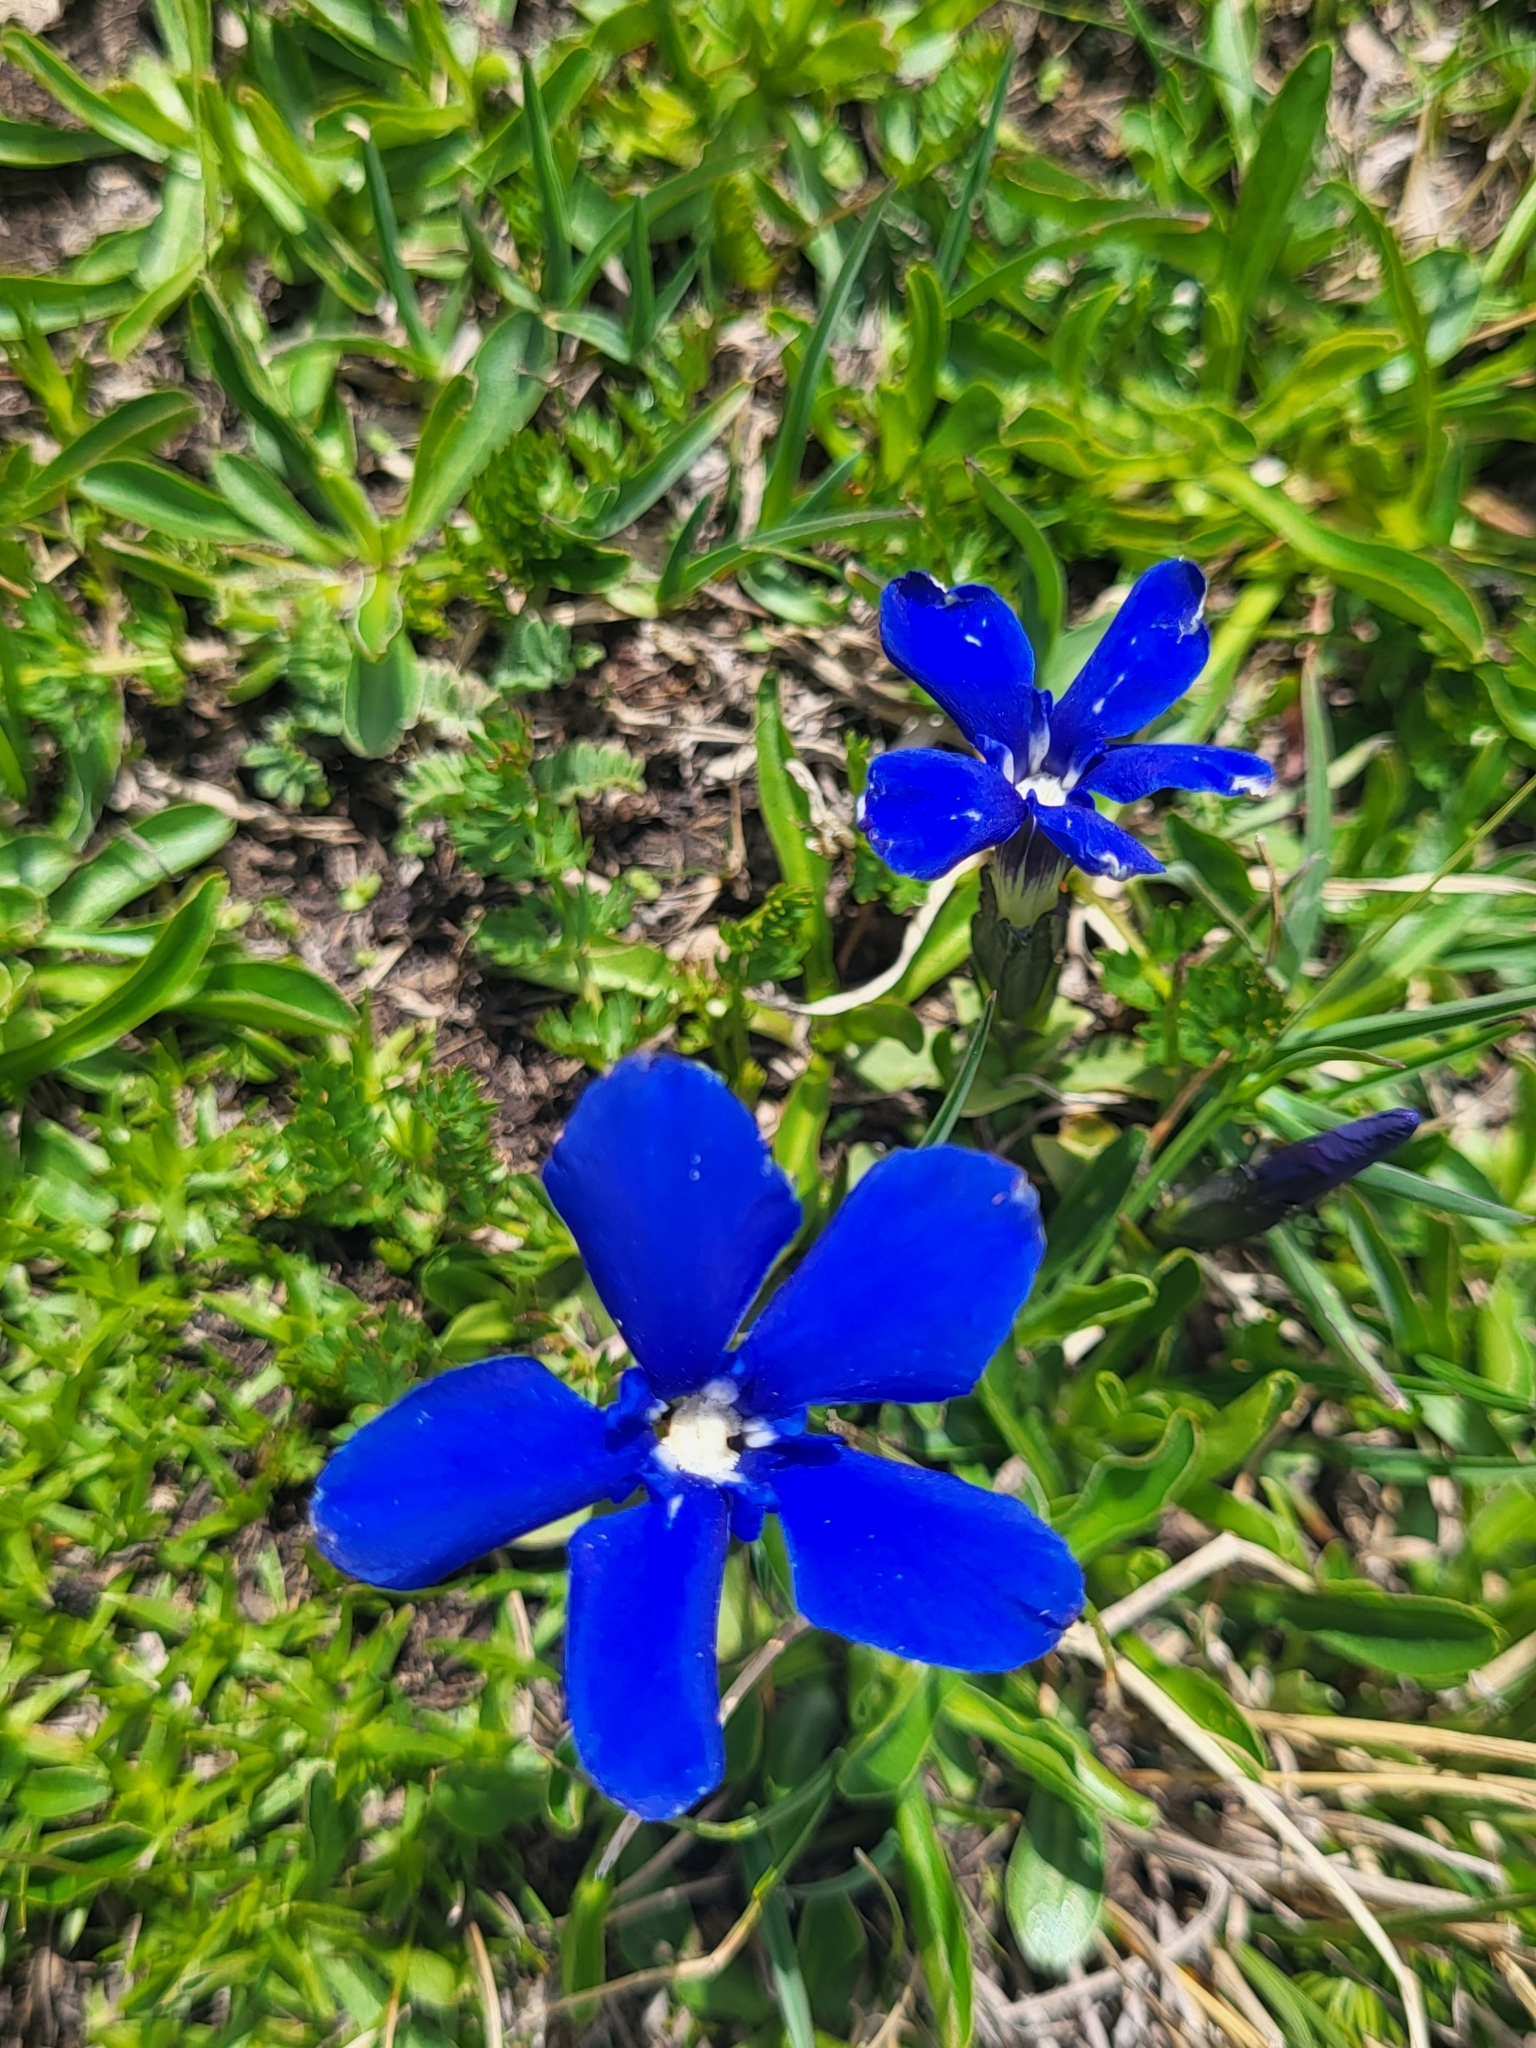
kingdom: Plantae
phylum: Tracheophyta
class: Magnoliopsida
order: Gentianales
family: Gentianaceae
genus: Gentiana
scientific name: Gentiana verna
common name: Spring gentian
